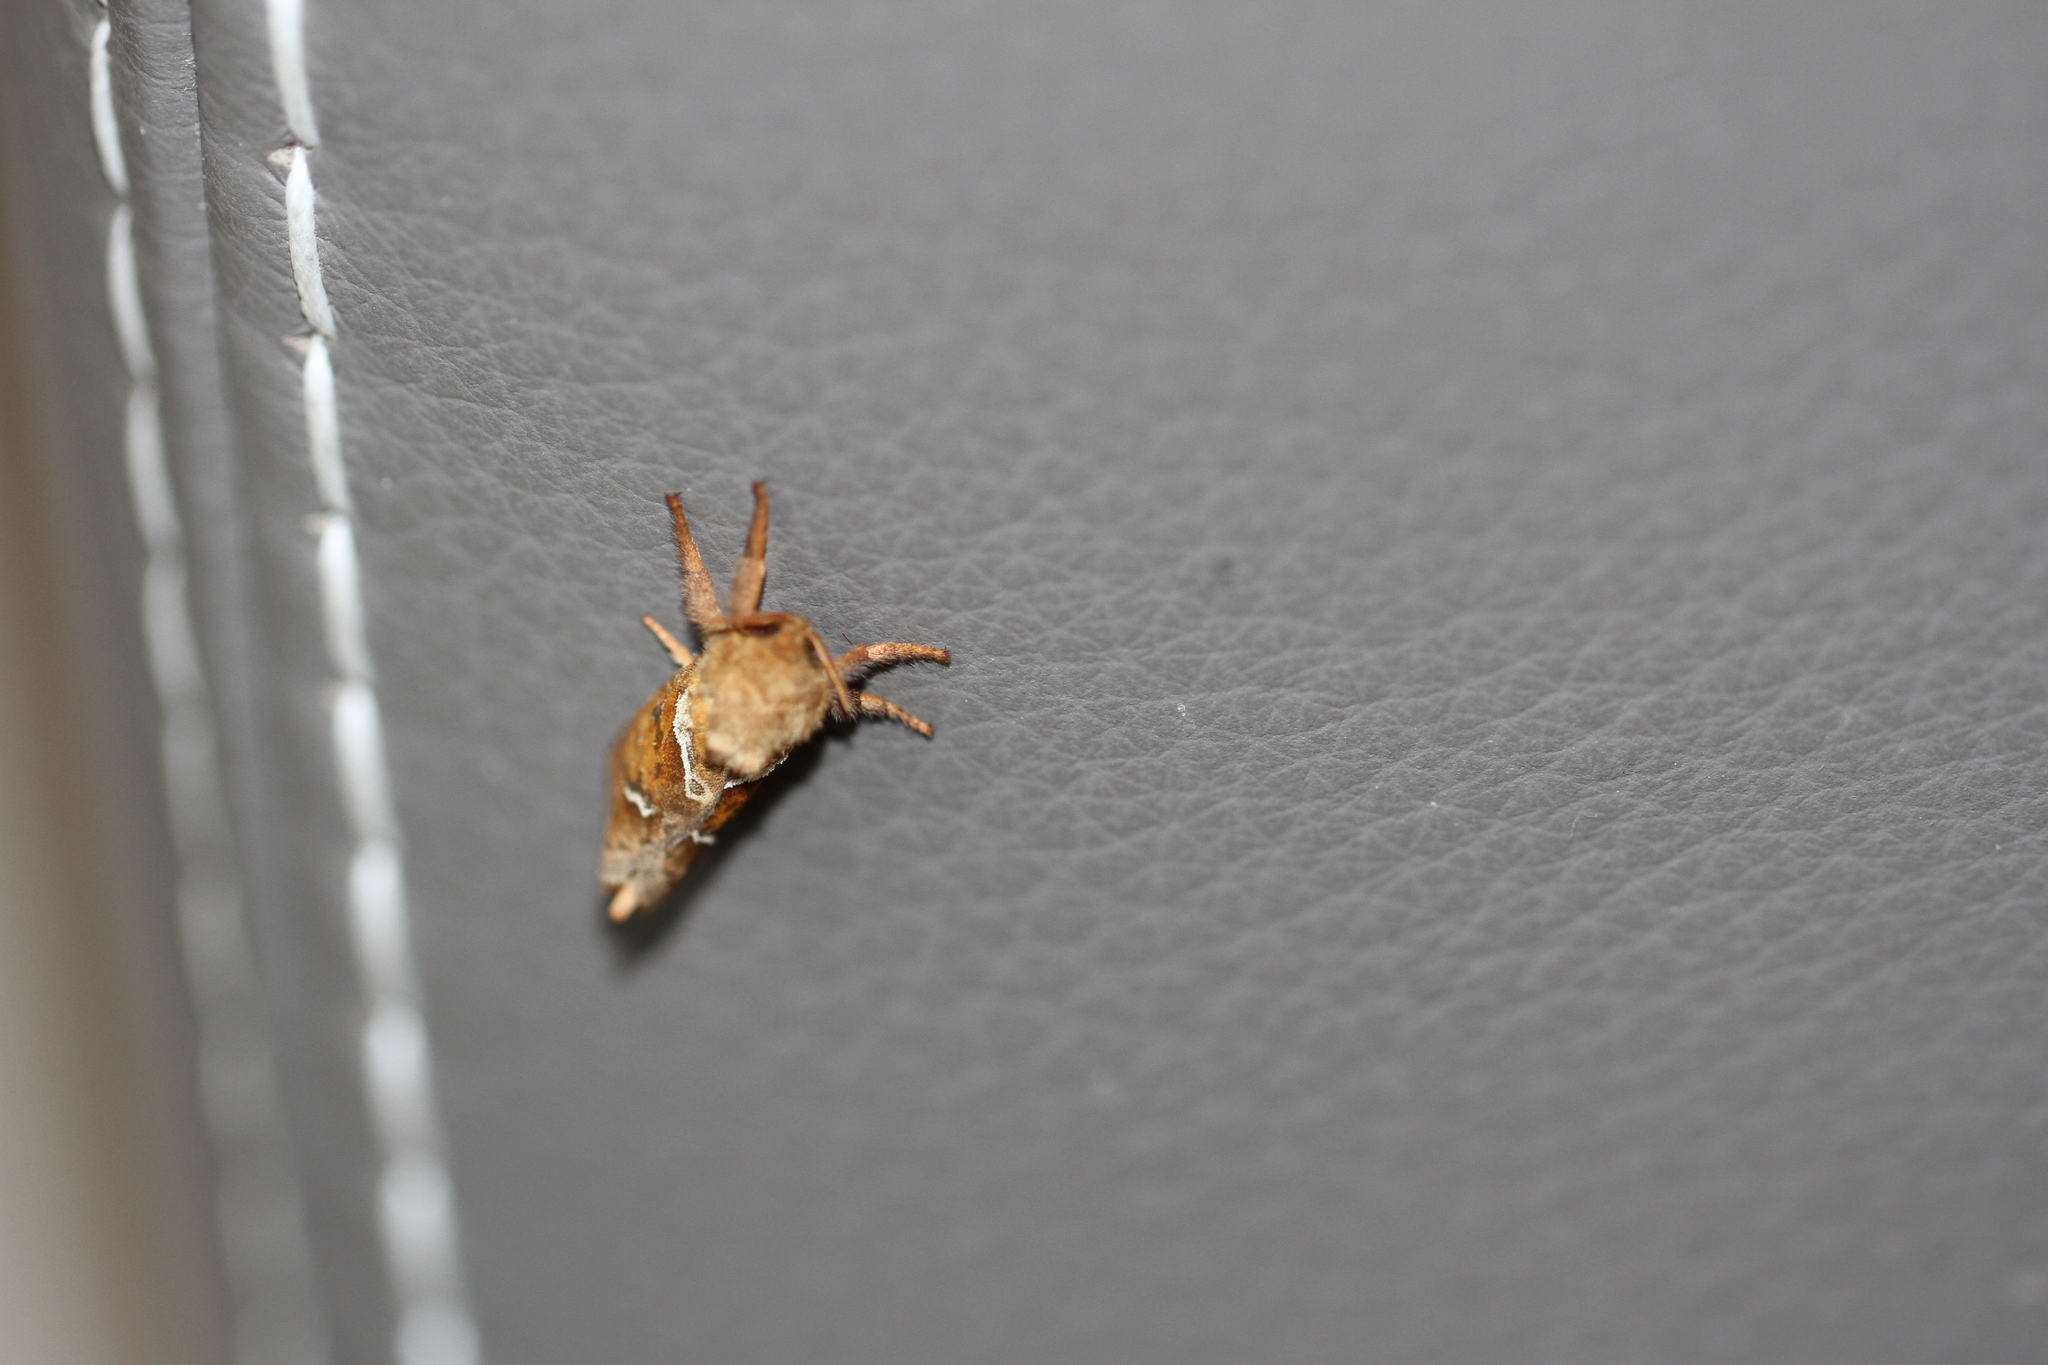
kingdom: Animalia
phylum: Arthropoda
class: Insecta
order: Lepidoptera
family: Hepialidae
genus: Triodia
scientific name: Triodia sylvina
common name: Orange swift
